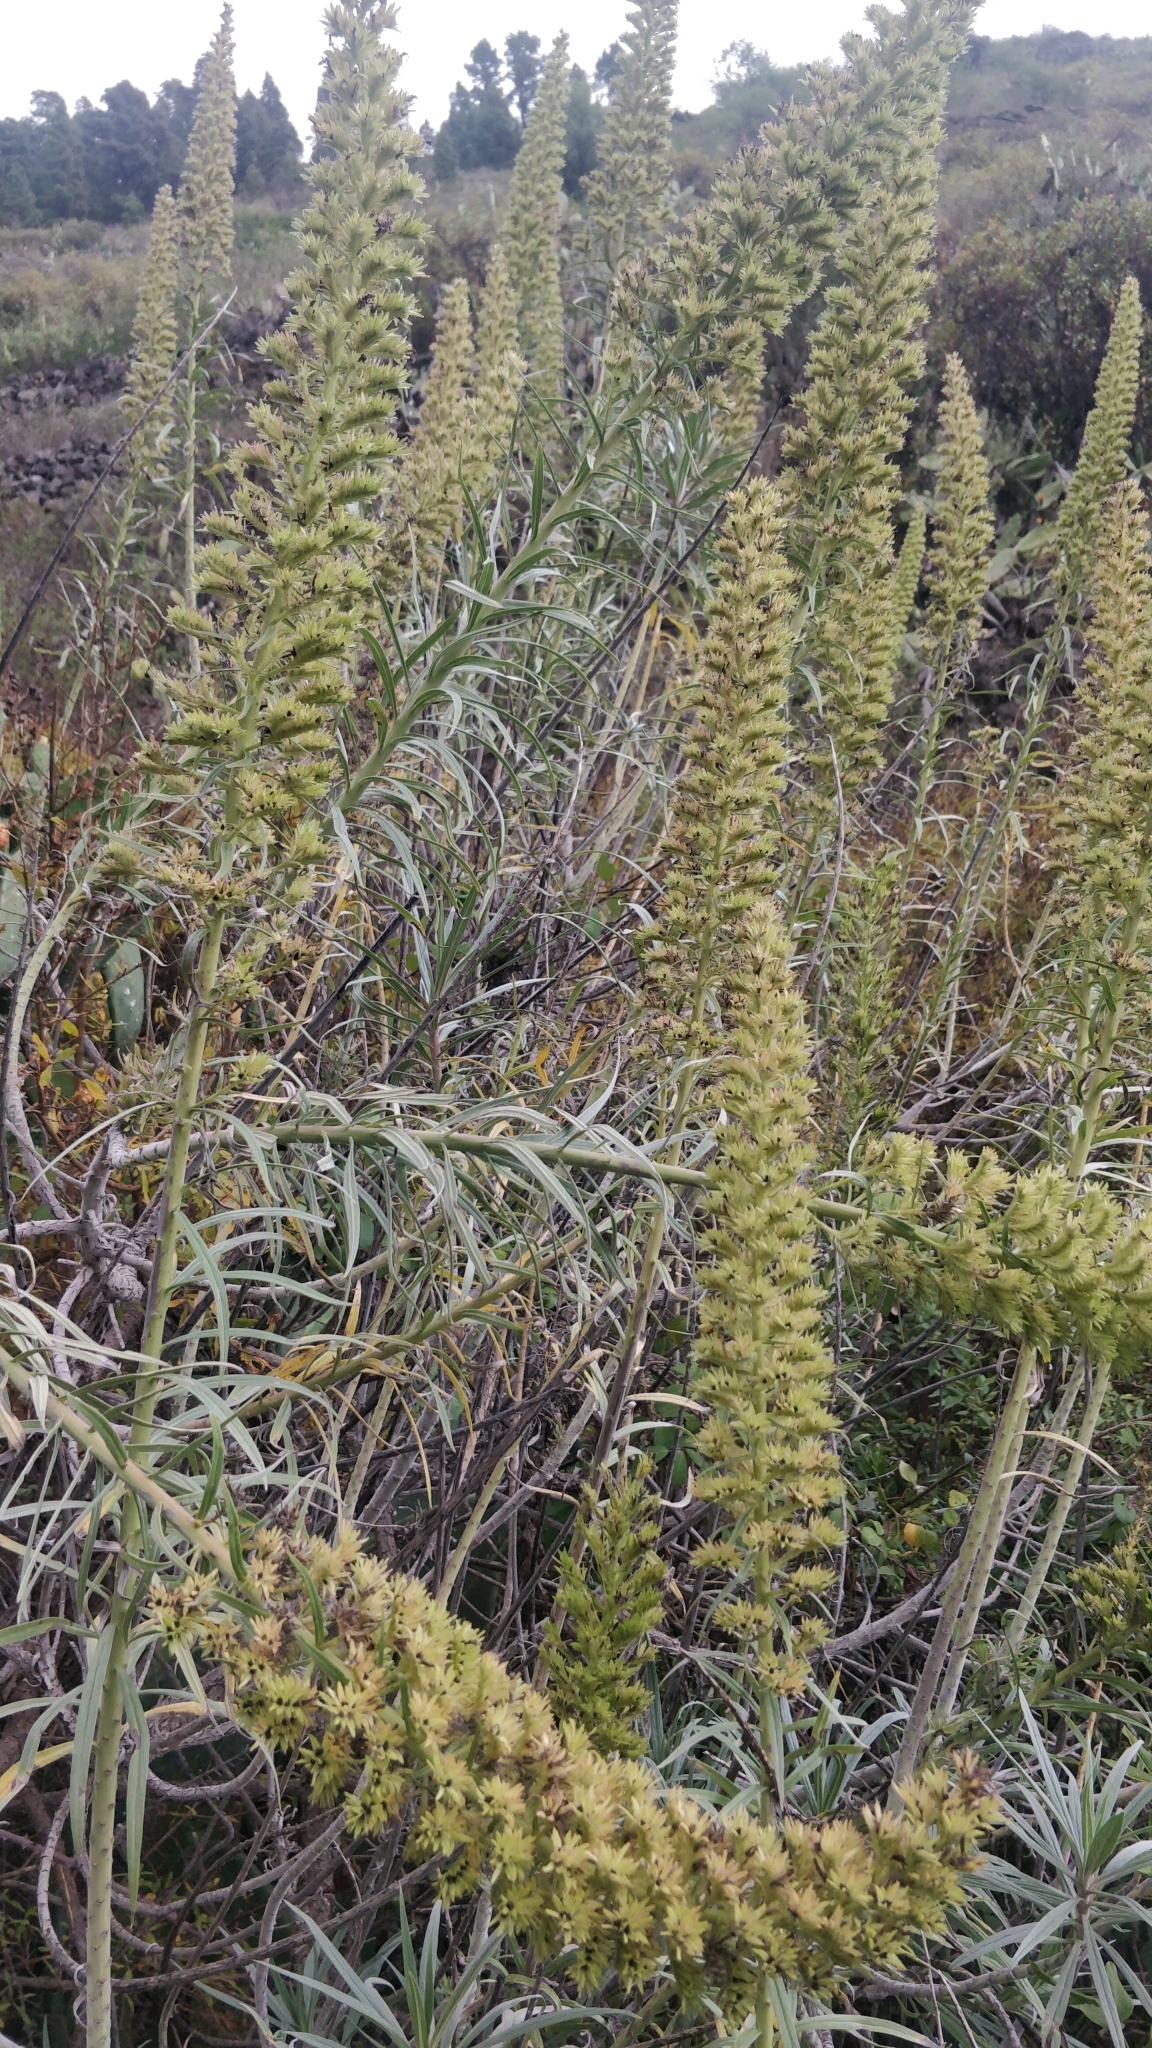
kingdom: Plantae
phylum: Tracheophyta
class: Magnoliopsida
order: Boraginales
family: Boraginaceae
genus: Echium
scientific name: Echium virescens
